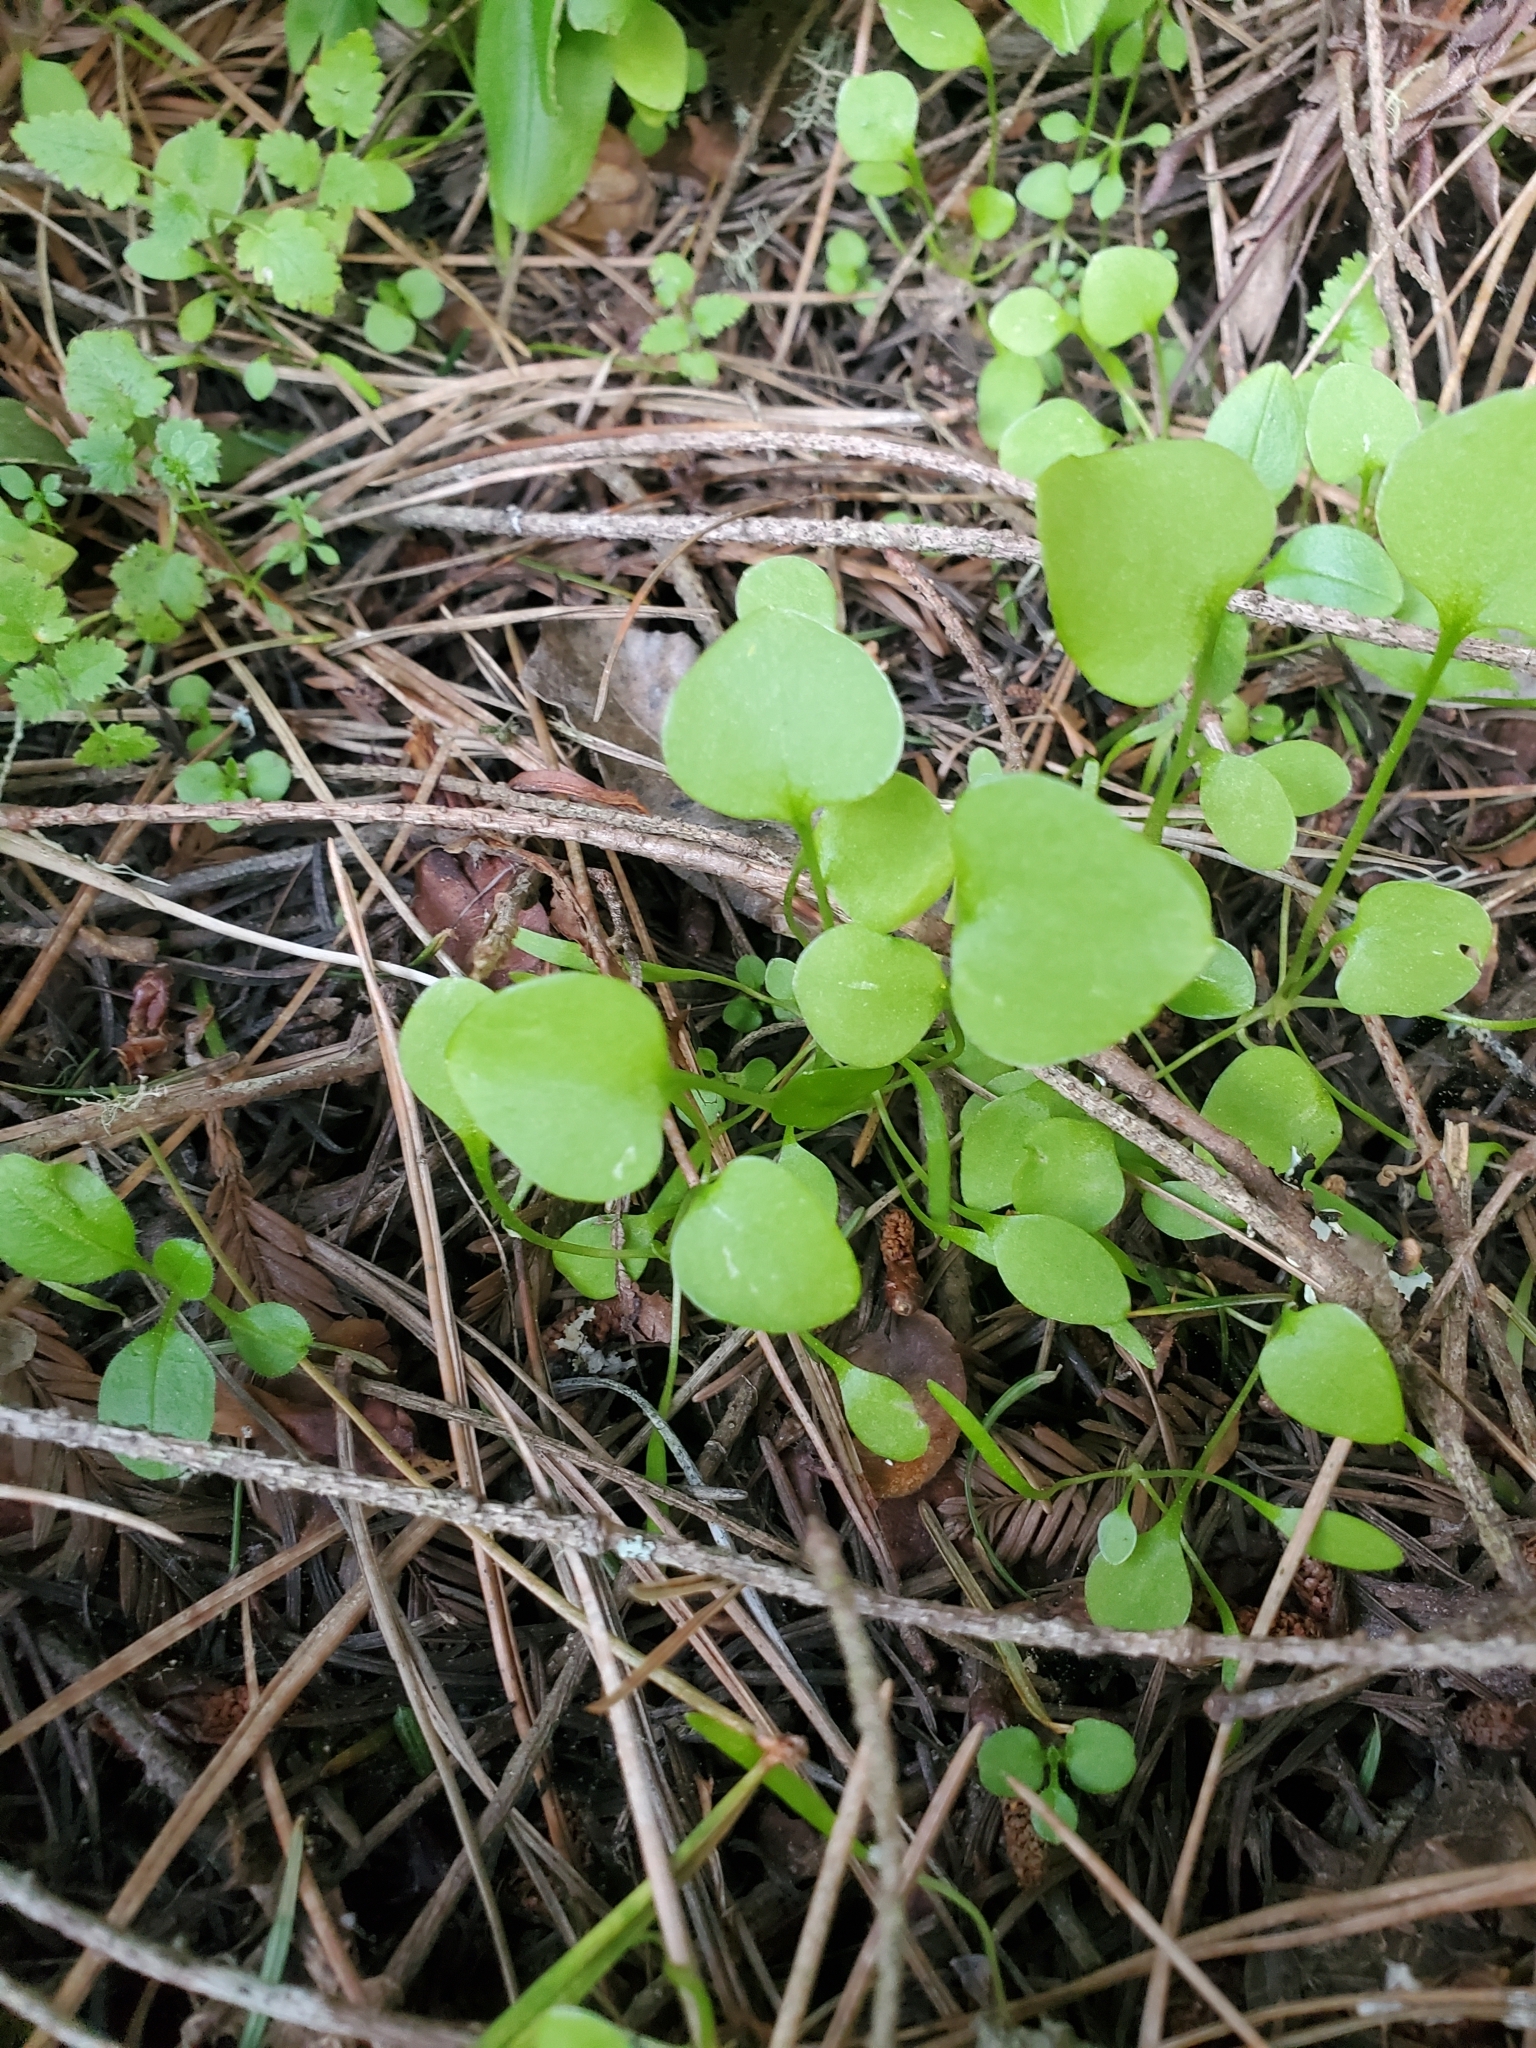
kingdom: Plantae
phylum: Tracheophyta
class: Magnoliopsida
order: Caryophyllales
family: Montiaceae
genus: Claytonia
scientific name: Claytonia perfoliata
